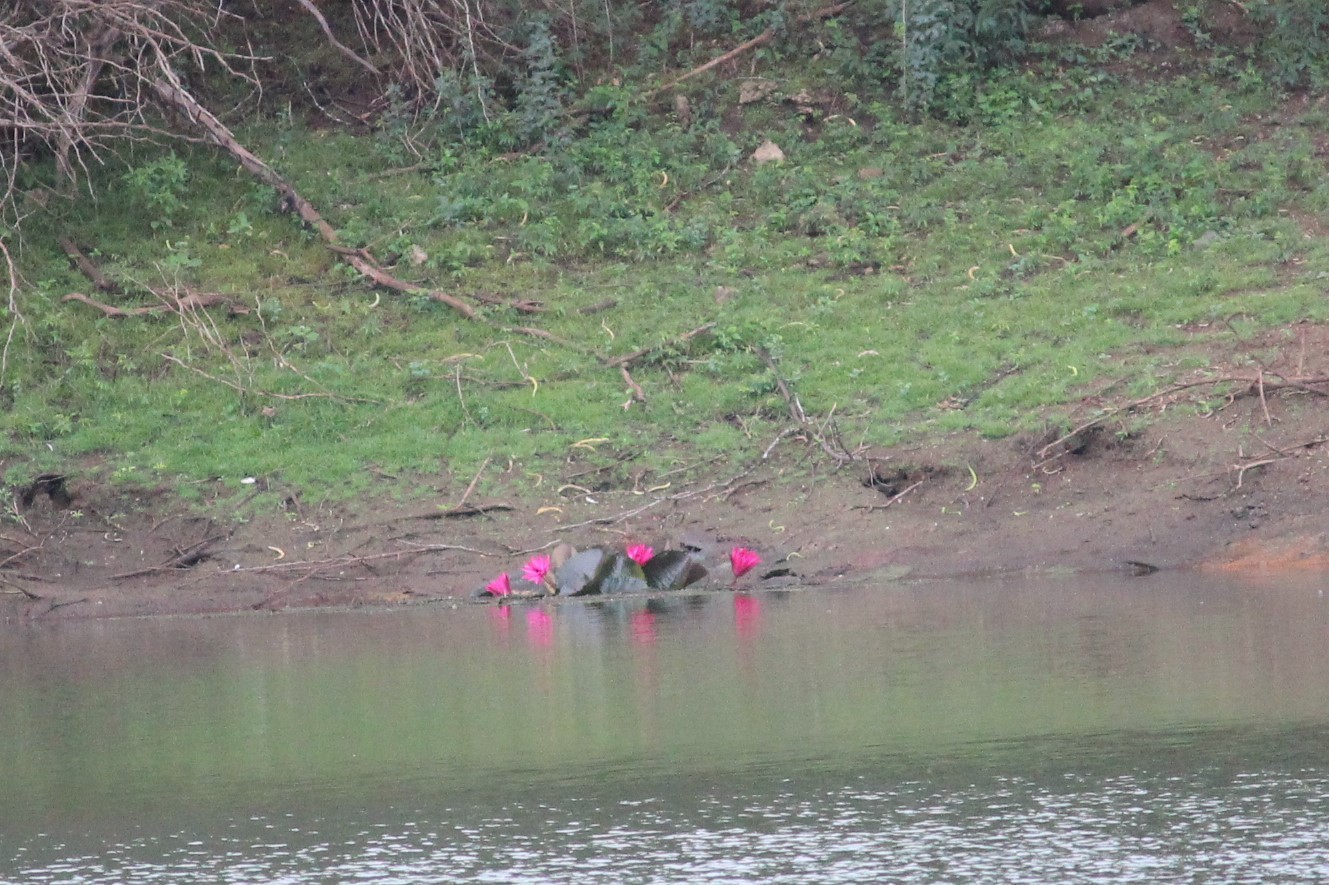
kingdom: Plantae
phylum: Tracheophyta
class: Magnoliopsida
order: Nymphaeales
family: Nymphaeaceae
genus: Nymphaea
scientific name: Nymphaea rubra
